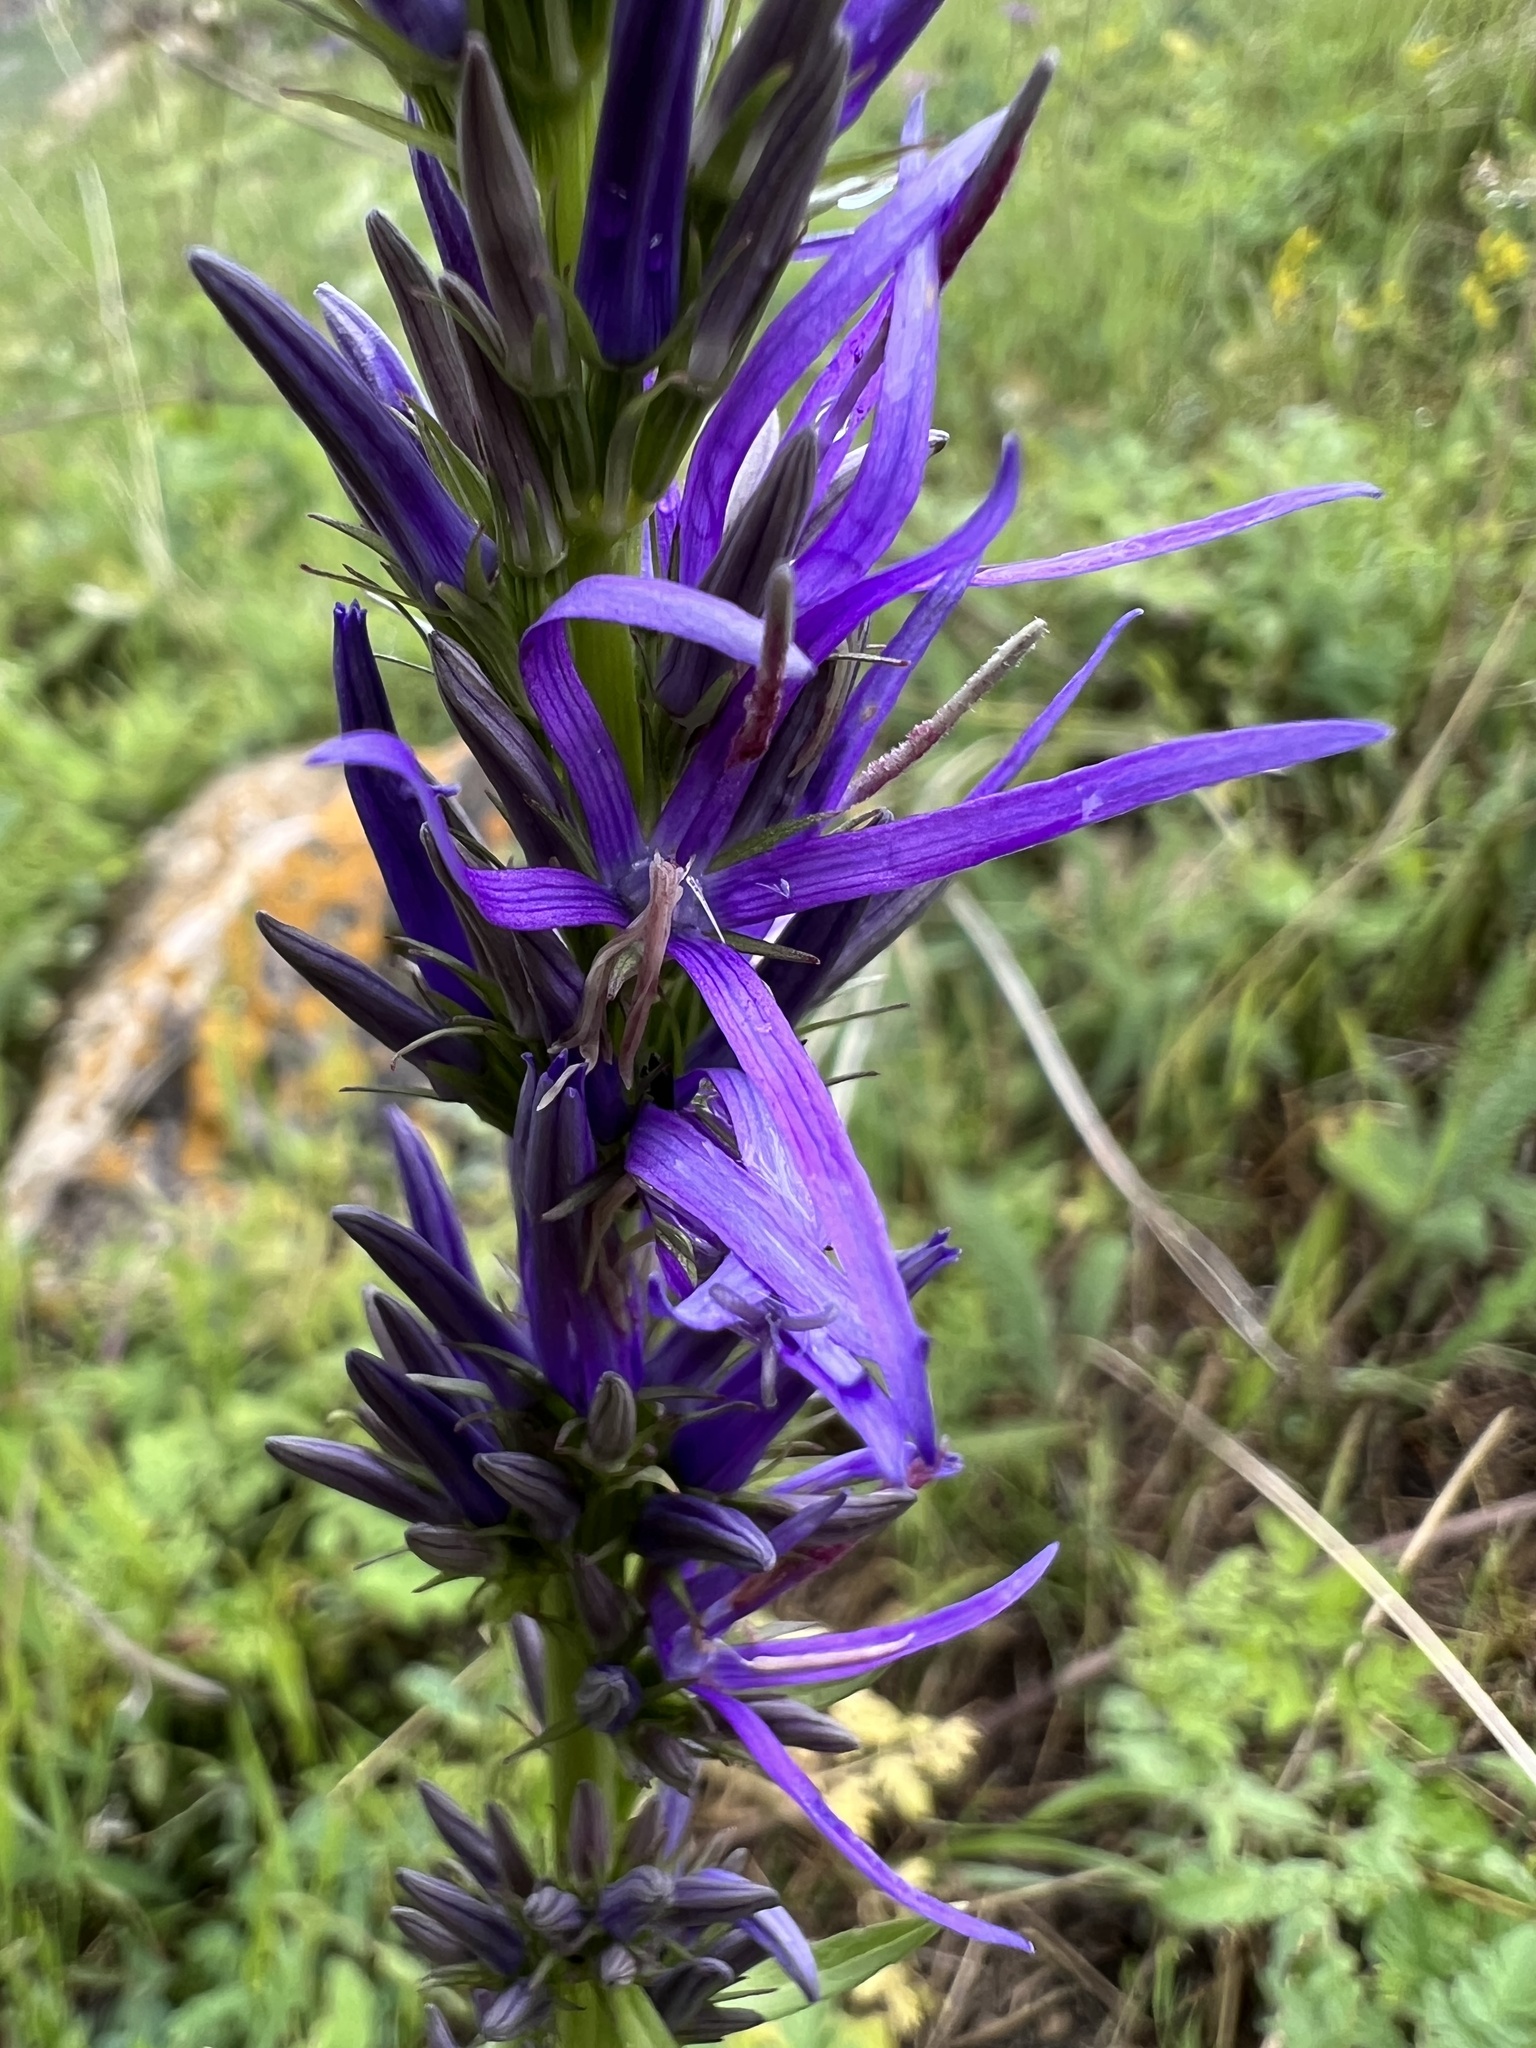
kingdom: Plantae
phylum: Tracheophyta
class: Magnoliopsida
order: Asterales
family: Campanulaceae
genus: Asyneuma
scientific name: Asyneuma campanuloides
